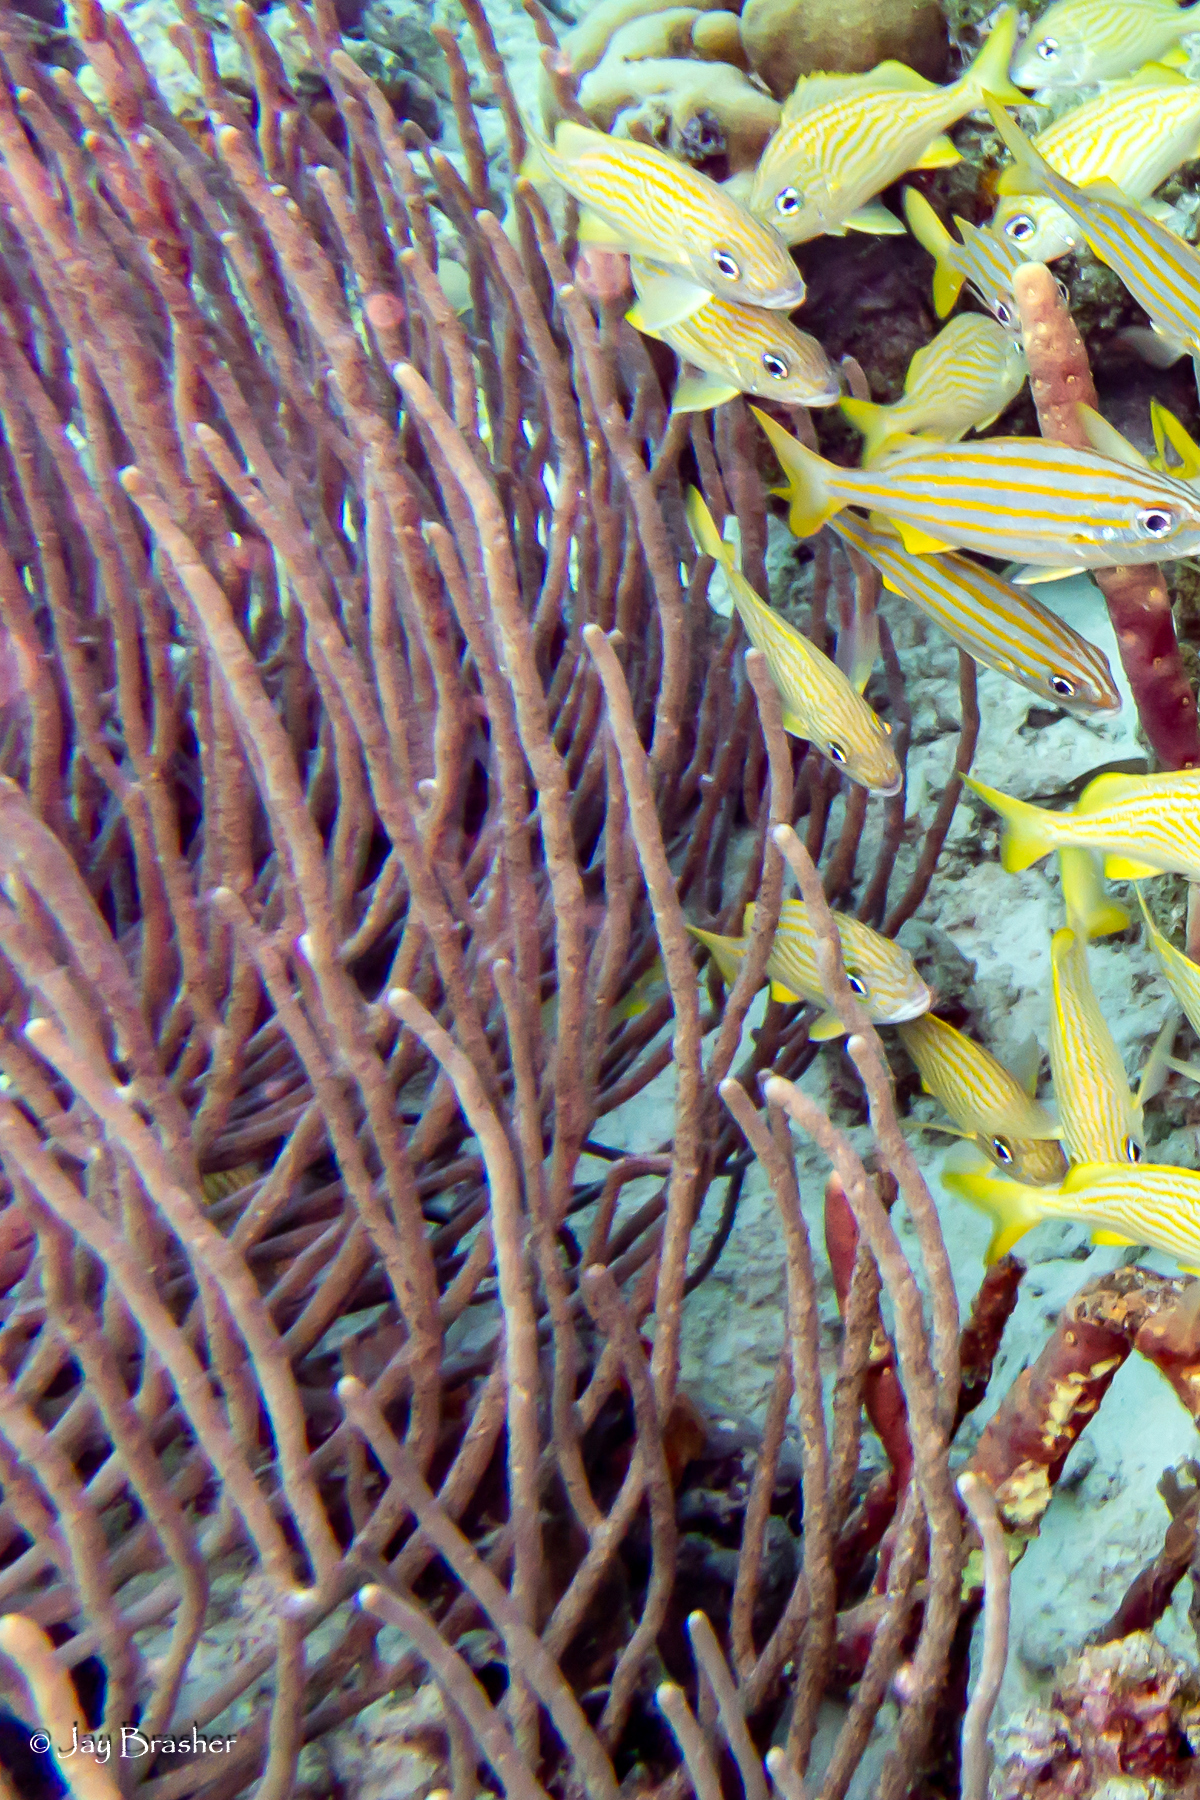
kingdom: Animalia
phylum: Porifera
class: Demospongiae
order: Verongiida
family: Aplysinidae
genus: Aplysina
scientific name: Aplysina cauliformis
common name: Branching candle sponge
